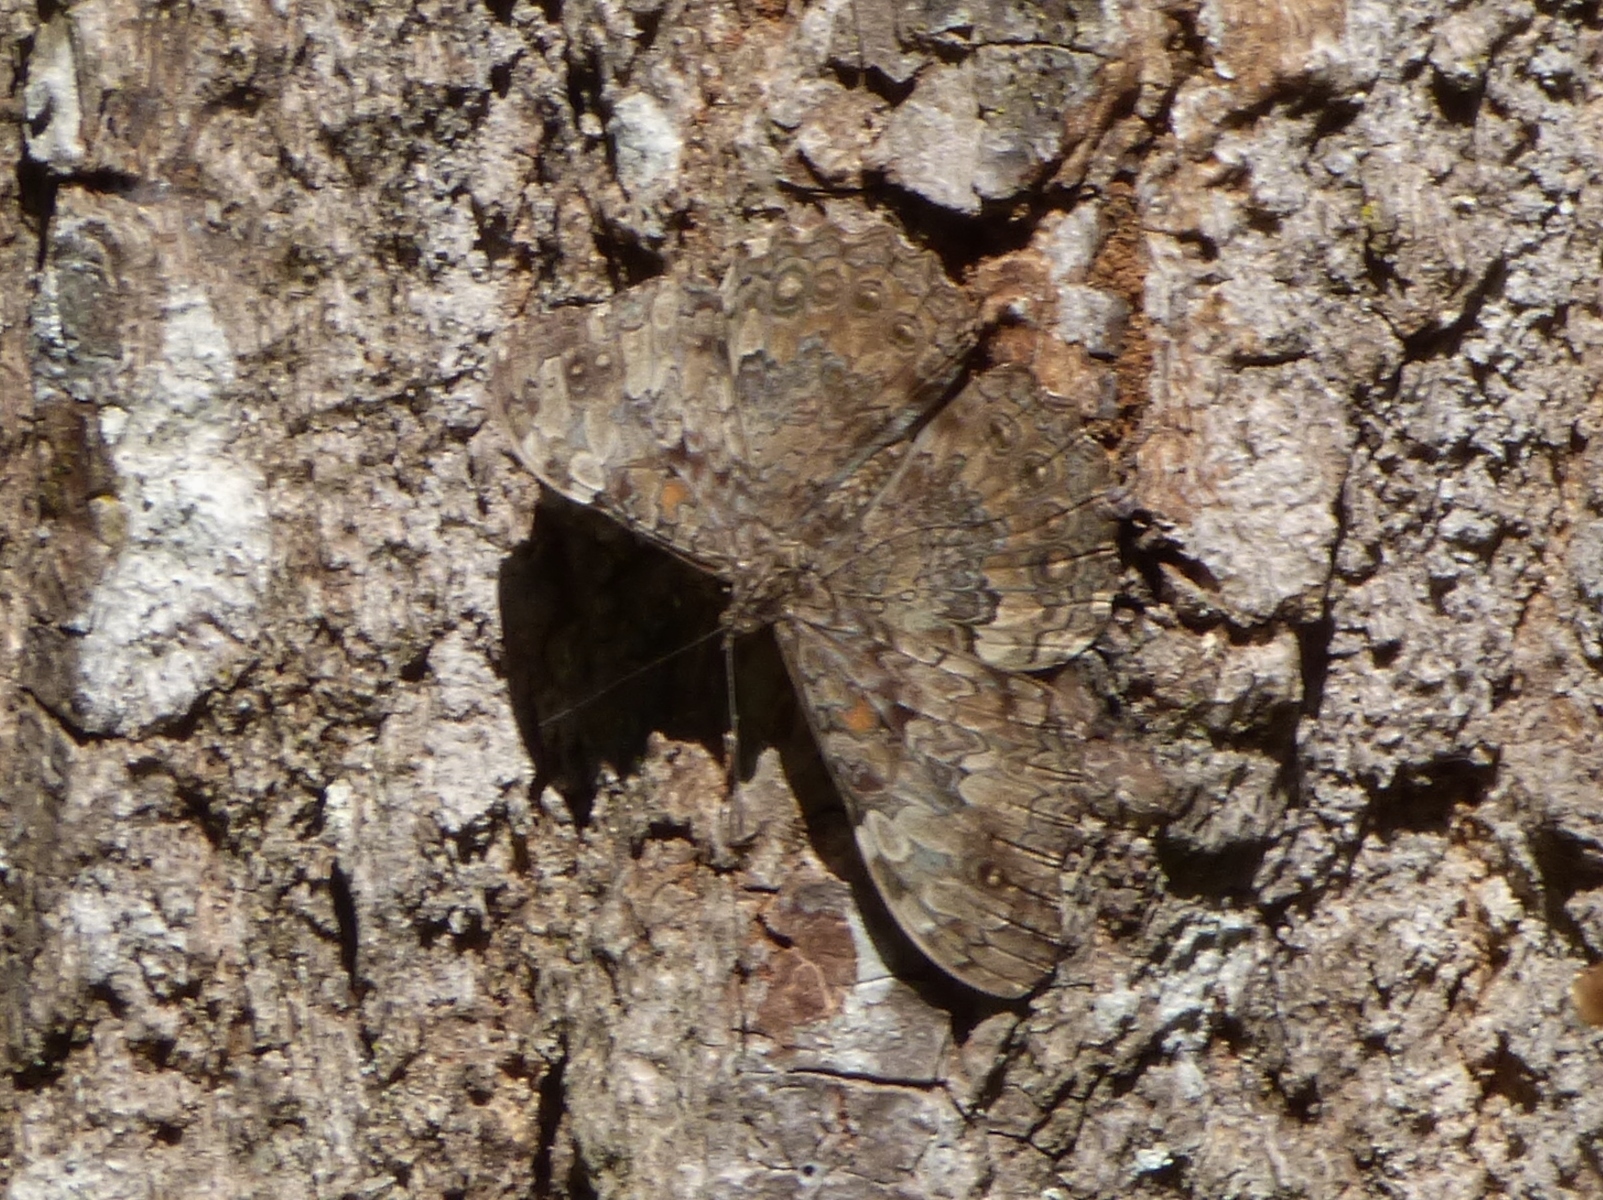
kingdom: Animalia
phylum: Arthropoda
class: Insecta
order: Lepidoptera
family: Nymphalidae
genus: Hamadryas
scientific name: Hamadryas epinome
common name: Epinome cracker
